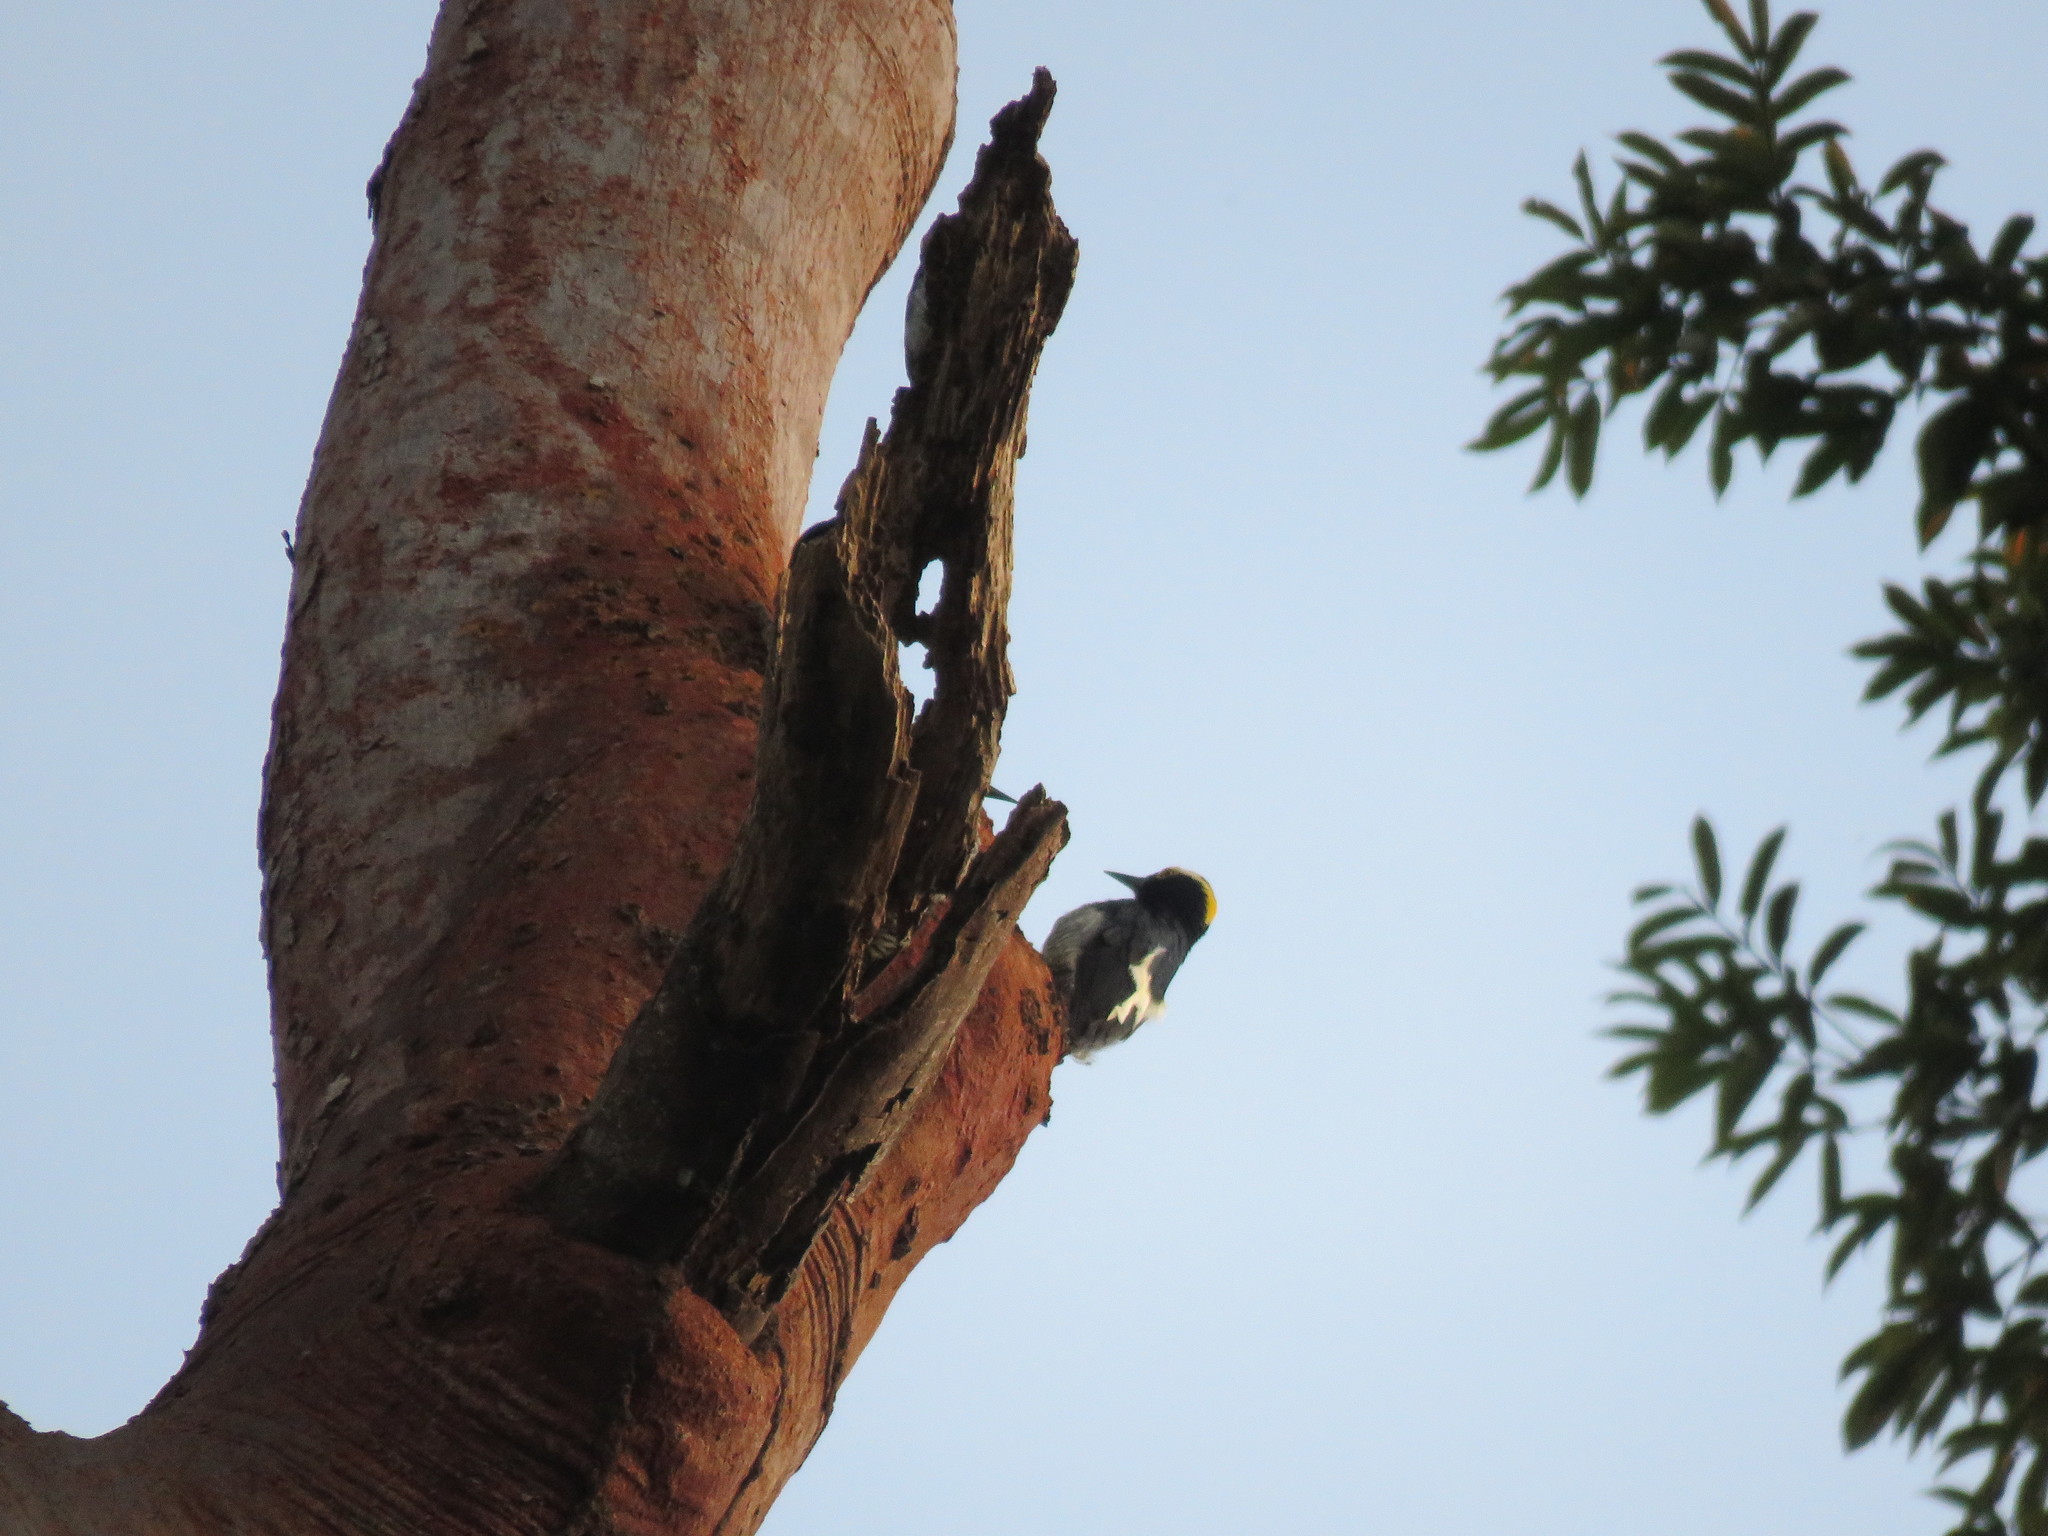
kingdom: Animalia
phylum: Chordata
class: Aves
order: Piciformes
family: Picidae
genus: Melanerpes
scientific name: Melanerpes cruentatus
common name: Yellow-tufted woodpecker
